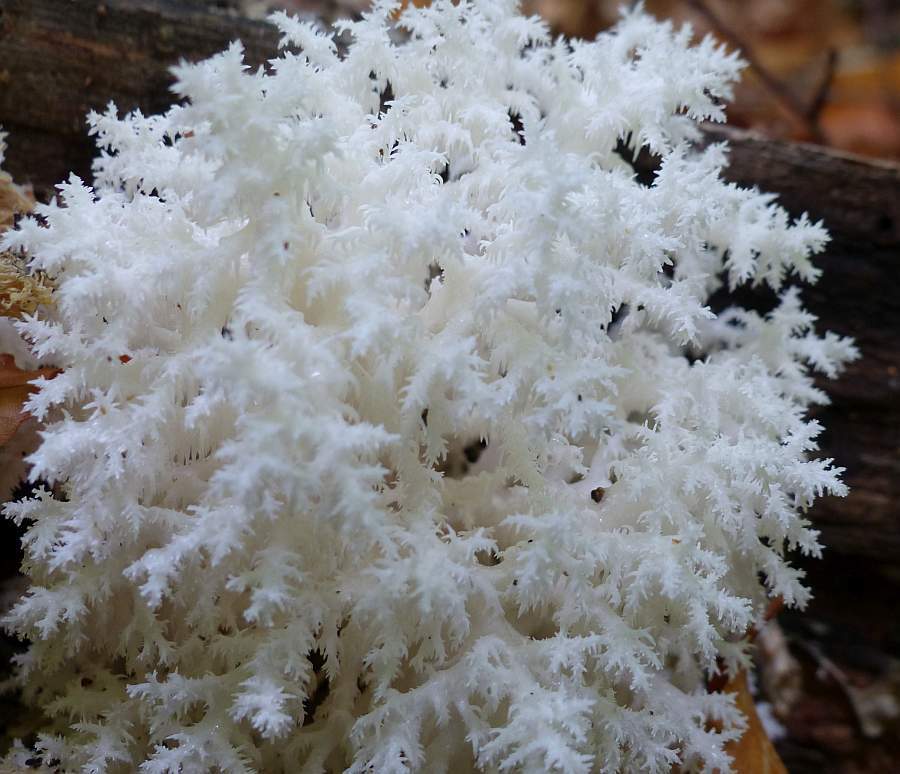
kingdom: Fungi
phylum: Basidiomycota
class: Agaricomycetes
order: Russulales
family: Hericiaceae
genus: Hericium
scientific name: Hericium coralloides
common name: Coral tooth
